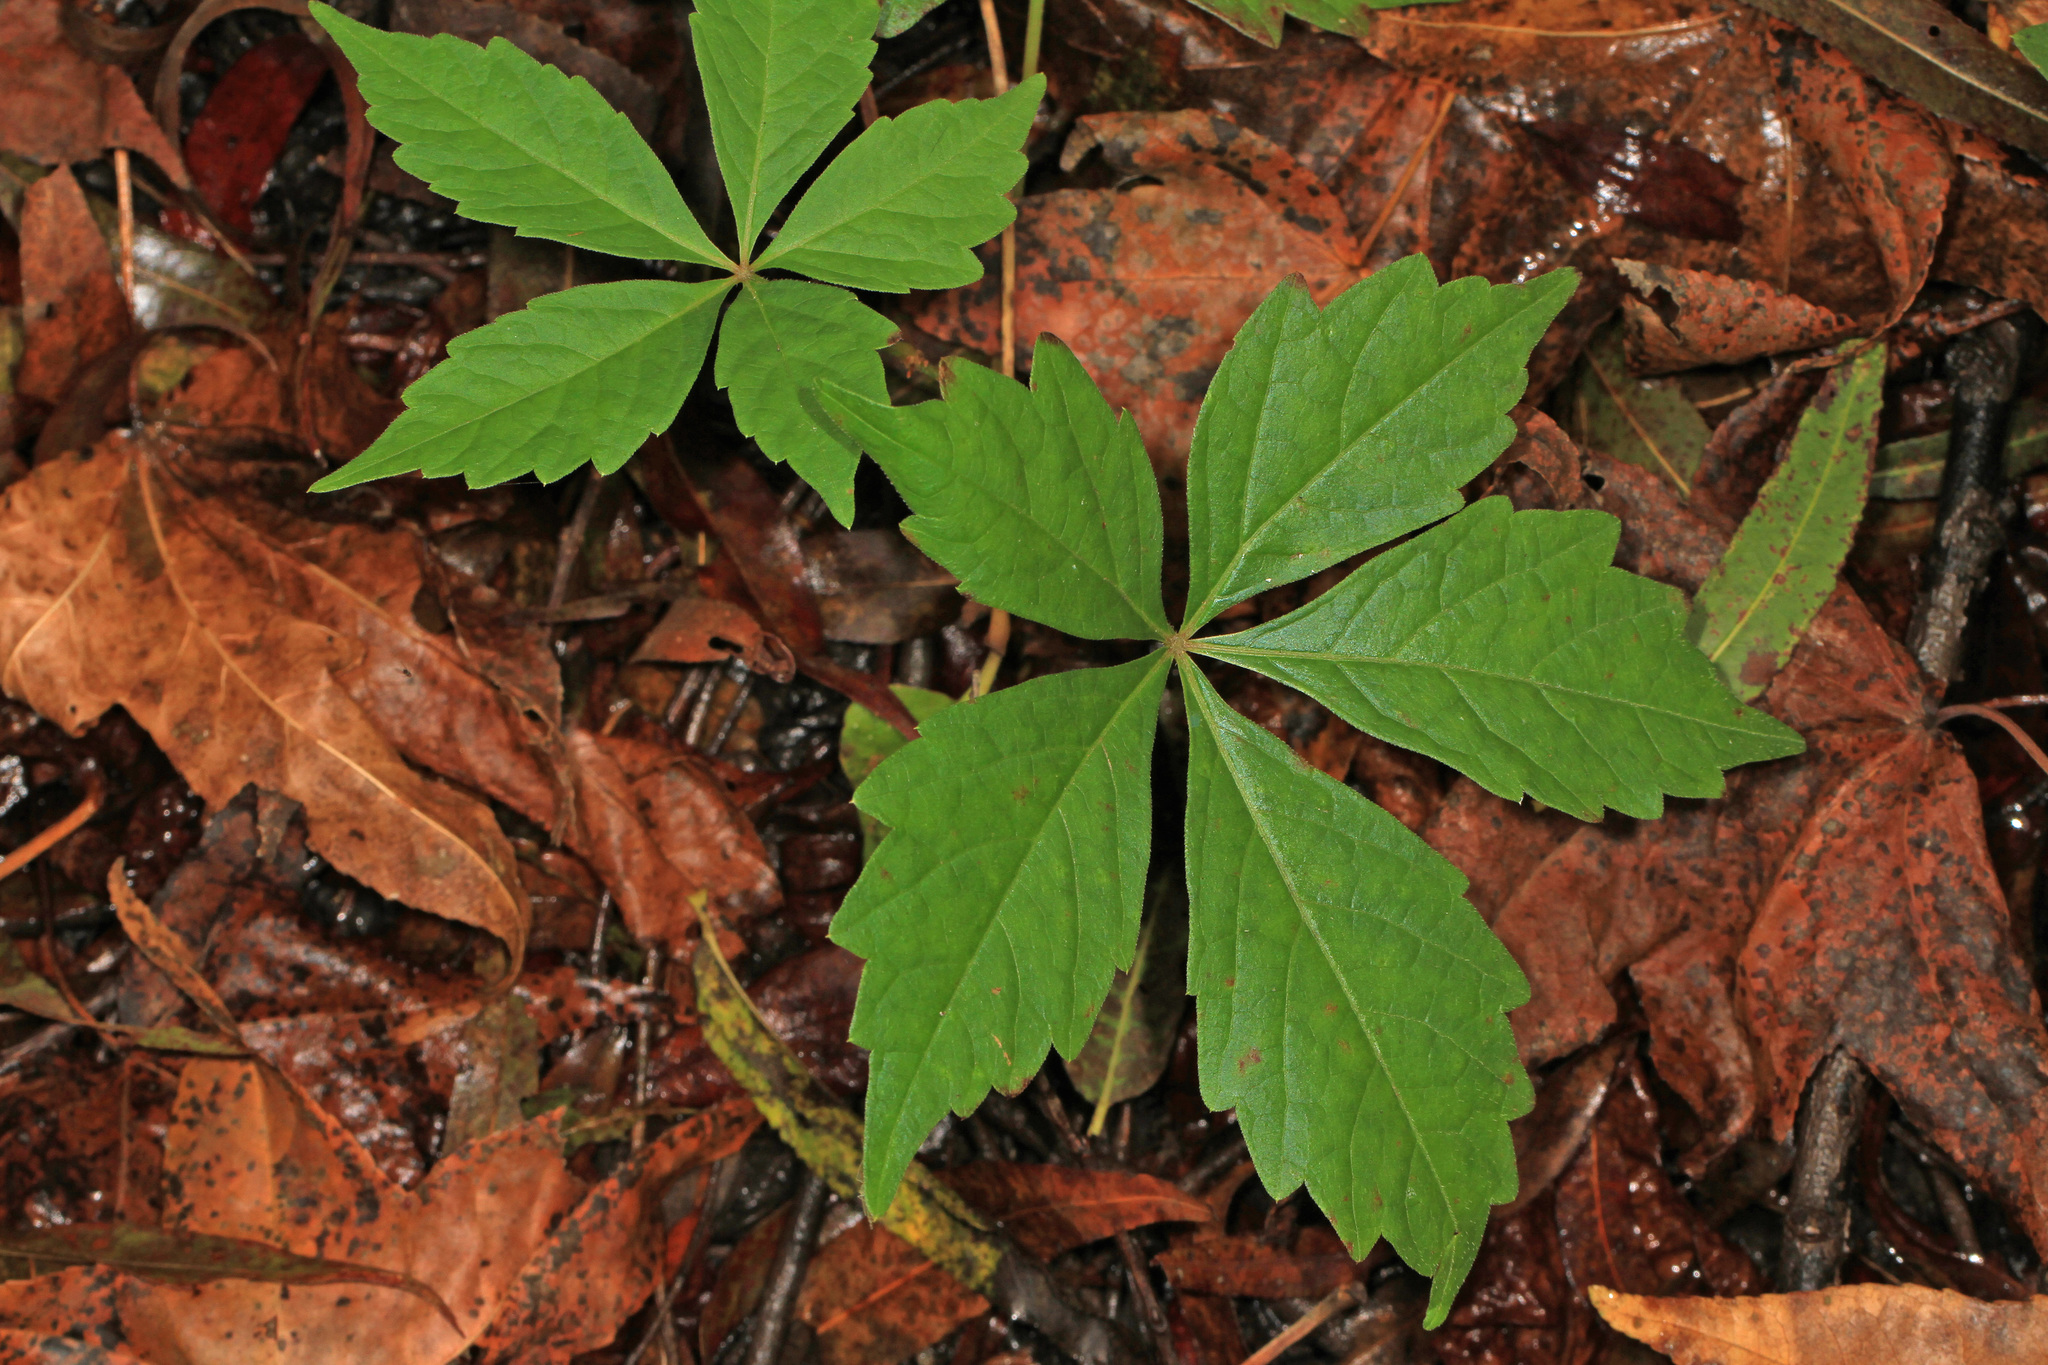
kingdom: Plantae
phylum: Tracheophyta
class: Magnoliopsida
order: Vitales
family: Vitaceae
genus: Parthenocissus
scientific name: Parthenocissus quinquefolia
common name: Virginia-creeper
